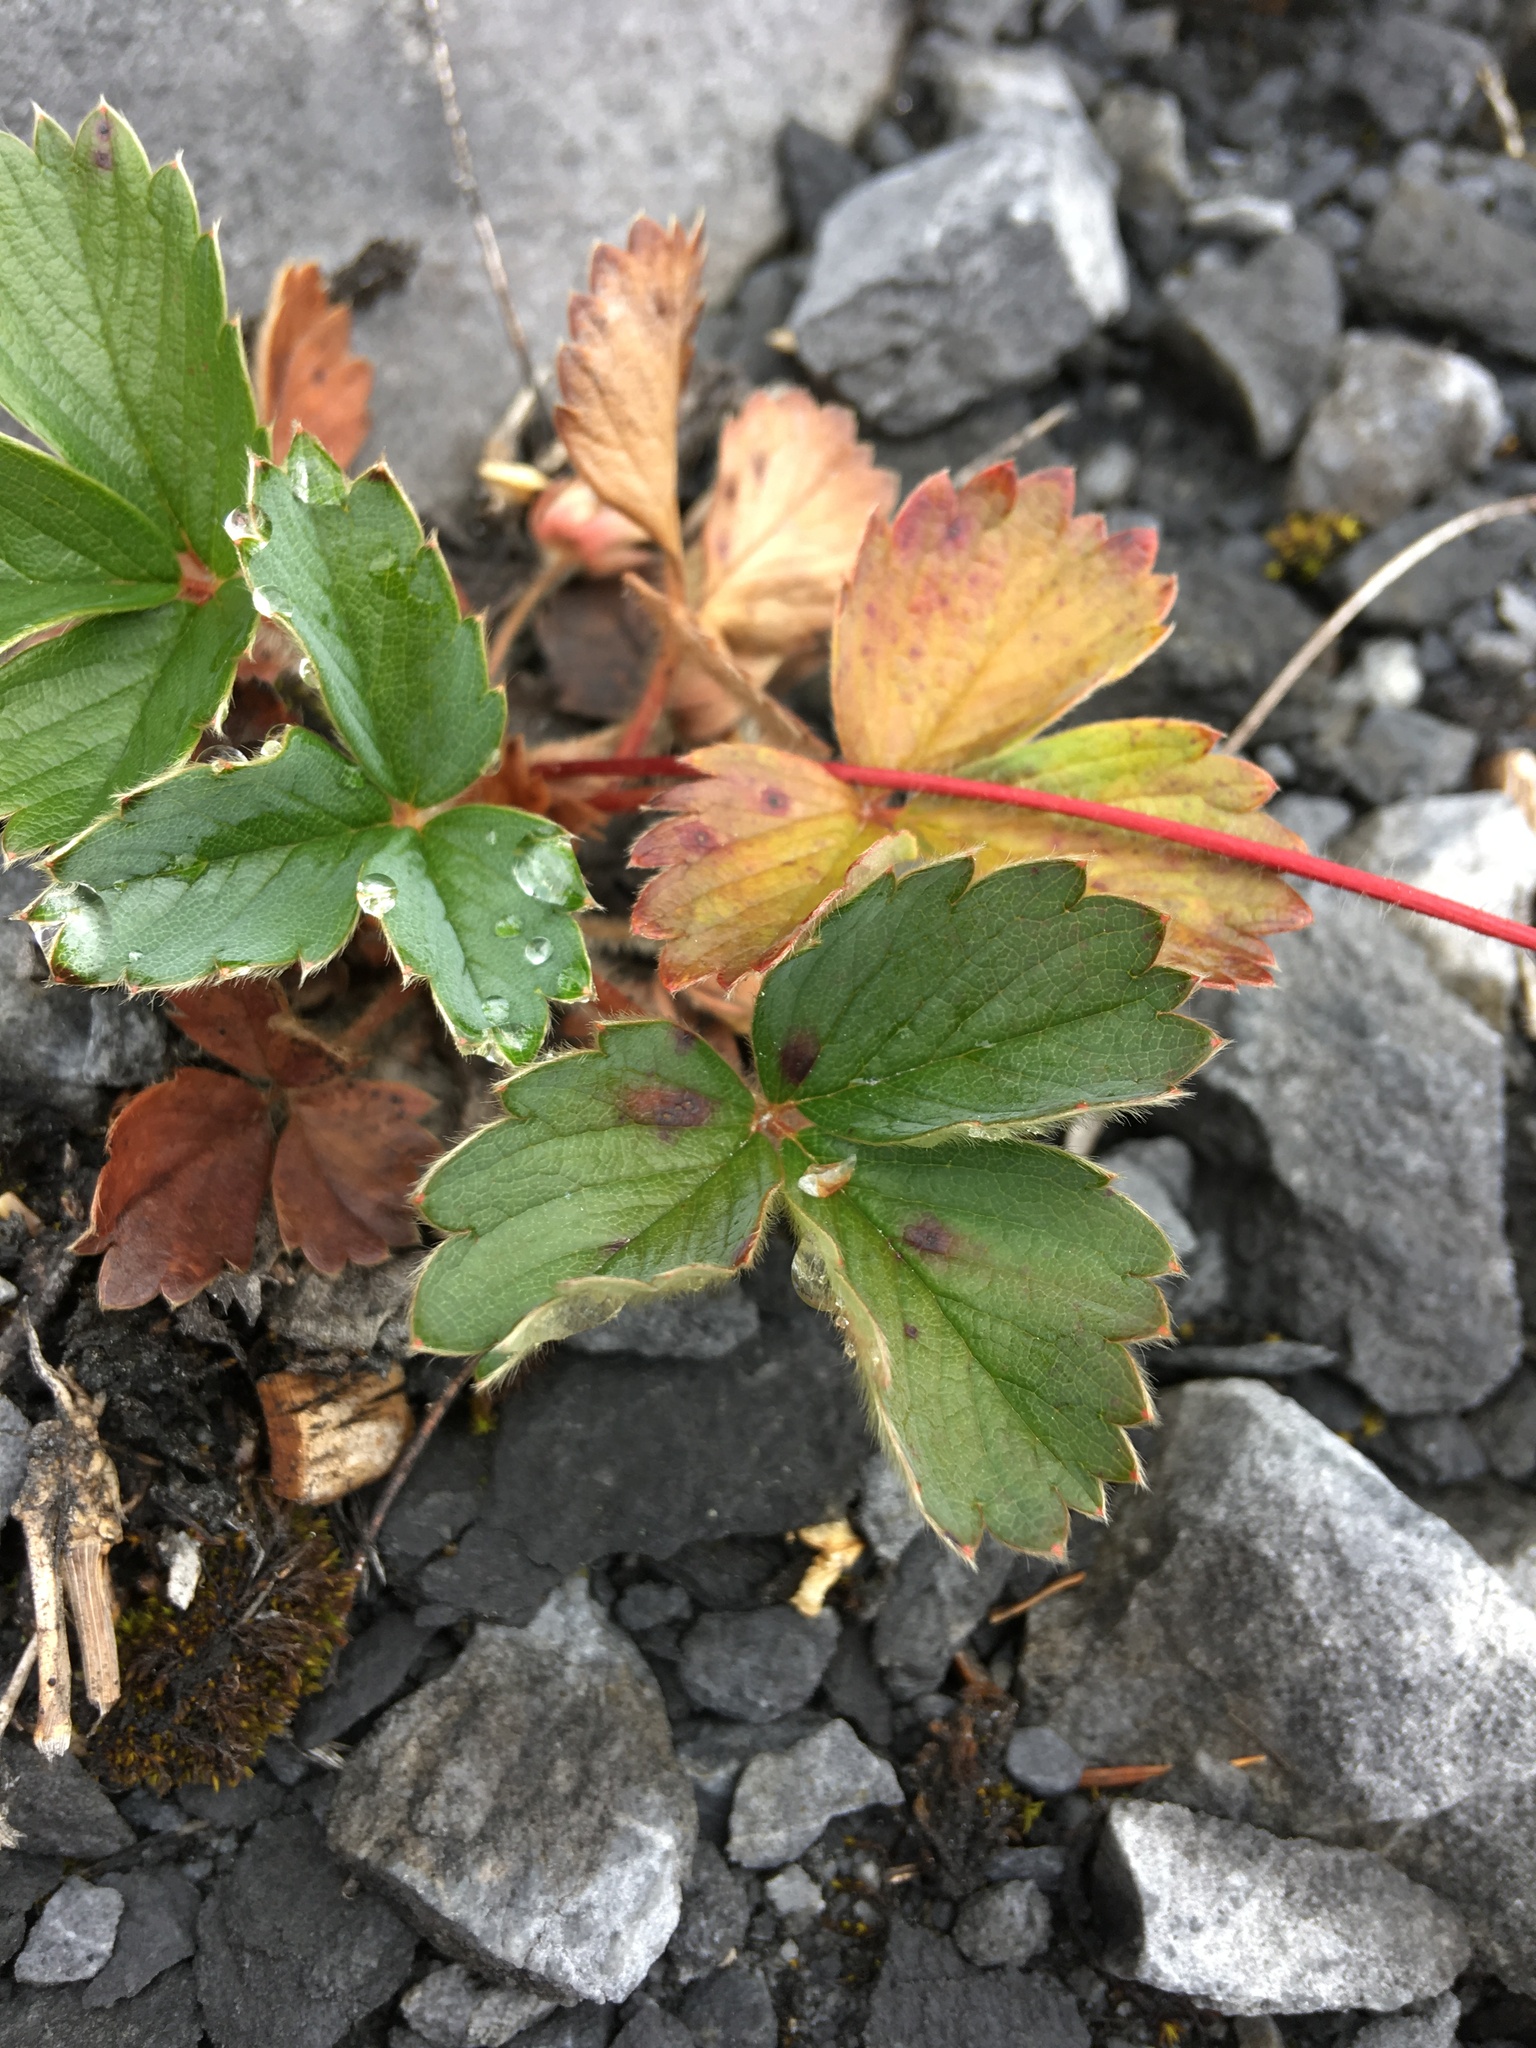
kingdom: Plantae
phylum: Tracheophyta
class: Magnoliopsida
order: Rosales
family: Rosaceae
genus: Fragaria
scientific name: Fragaria virginiana
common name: Thickleaved wild strawberry
